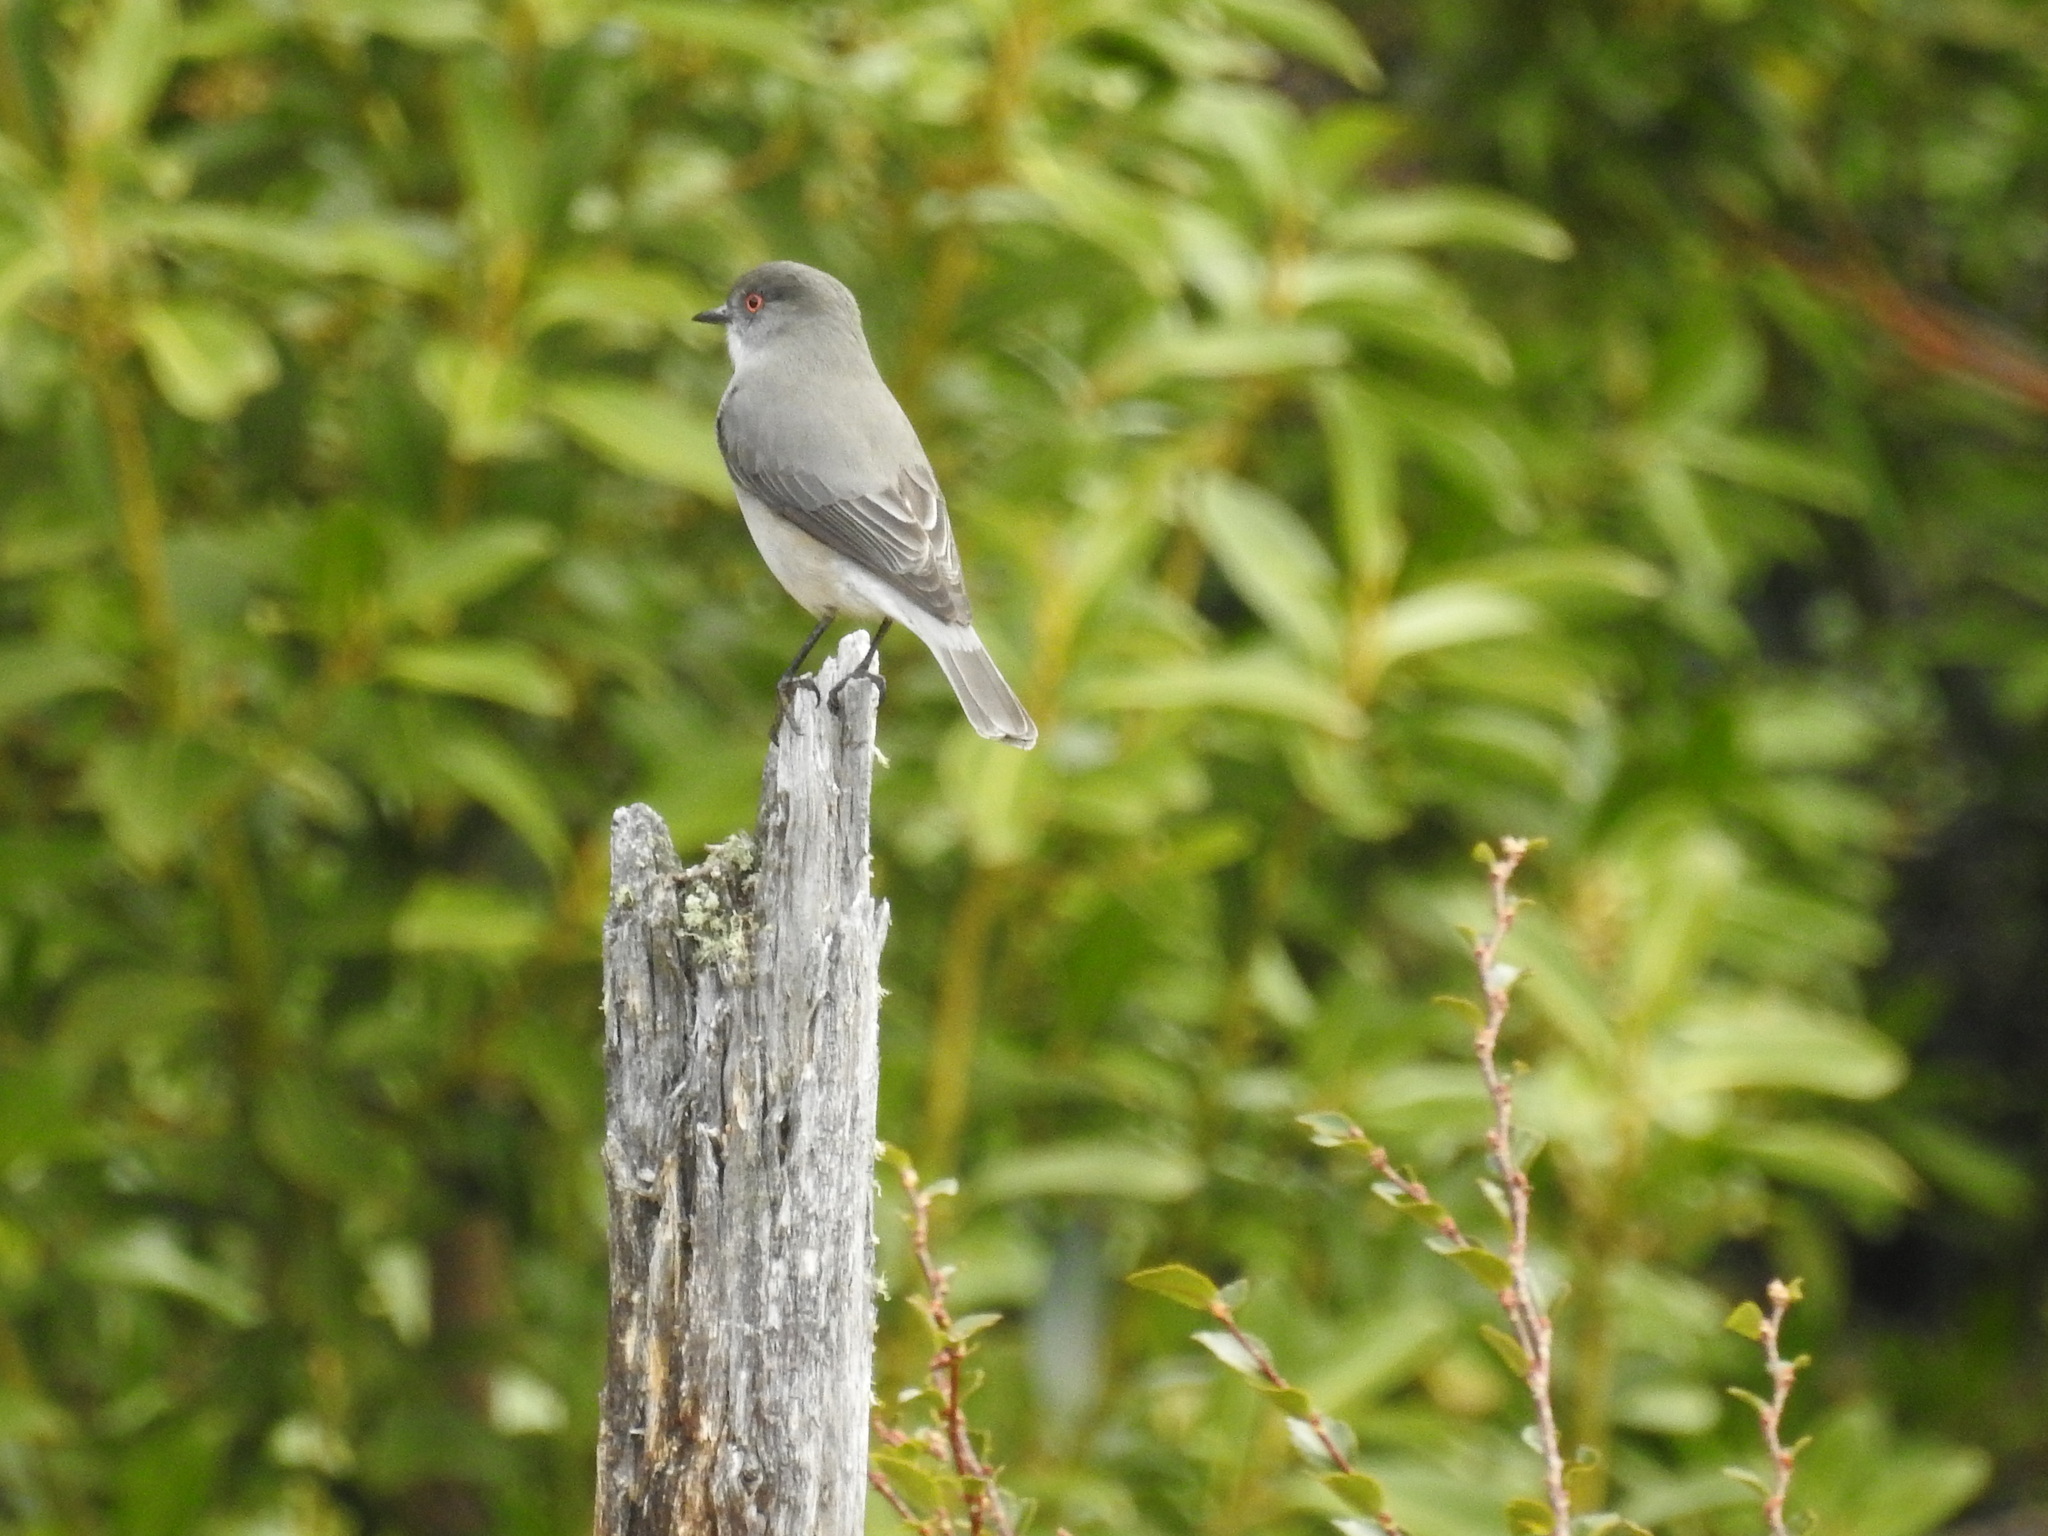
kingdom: Animalia
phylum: Chordata
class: Aves
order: Passeriformes
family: Tyrannidae
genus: Xolmis
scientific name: Xolmis pyrope
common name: Fire-eyed diucon
